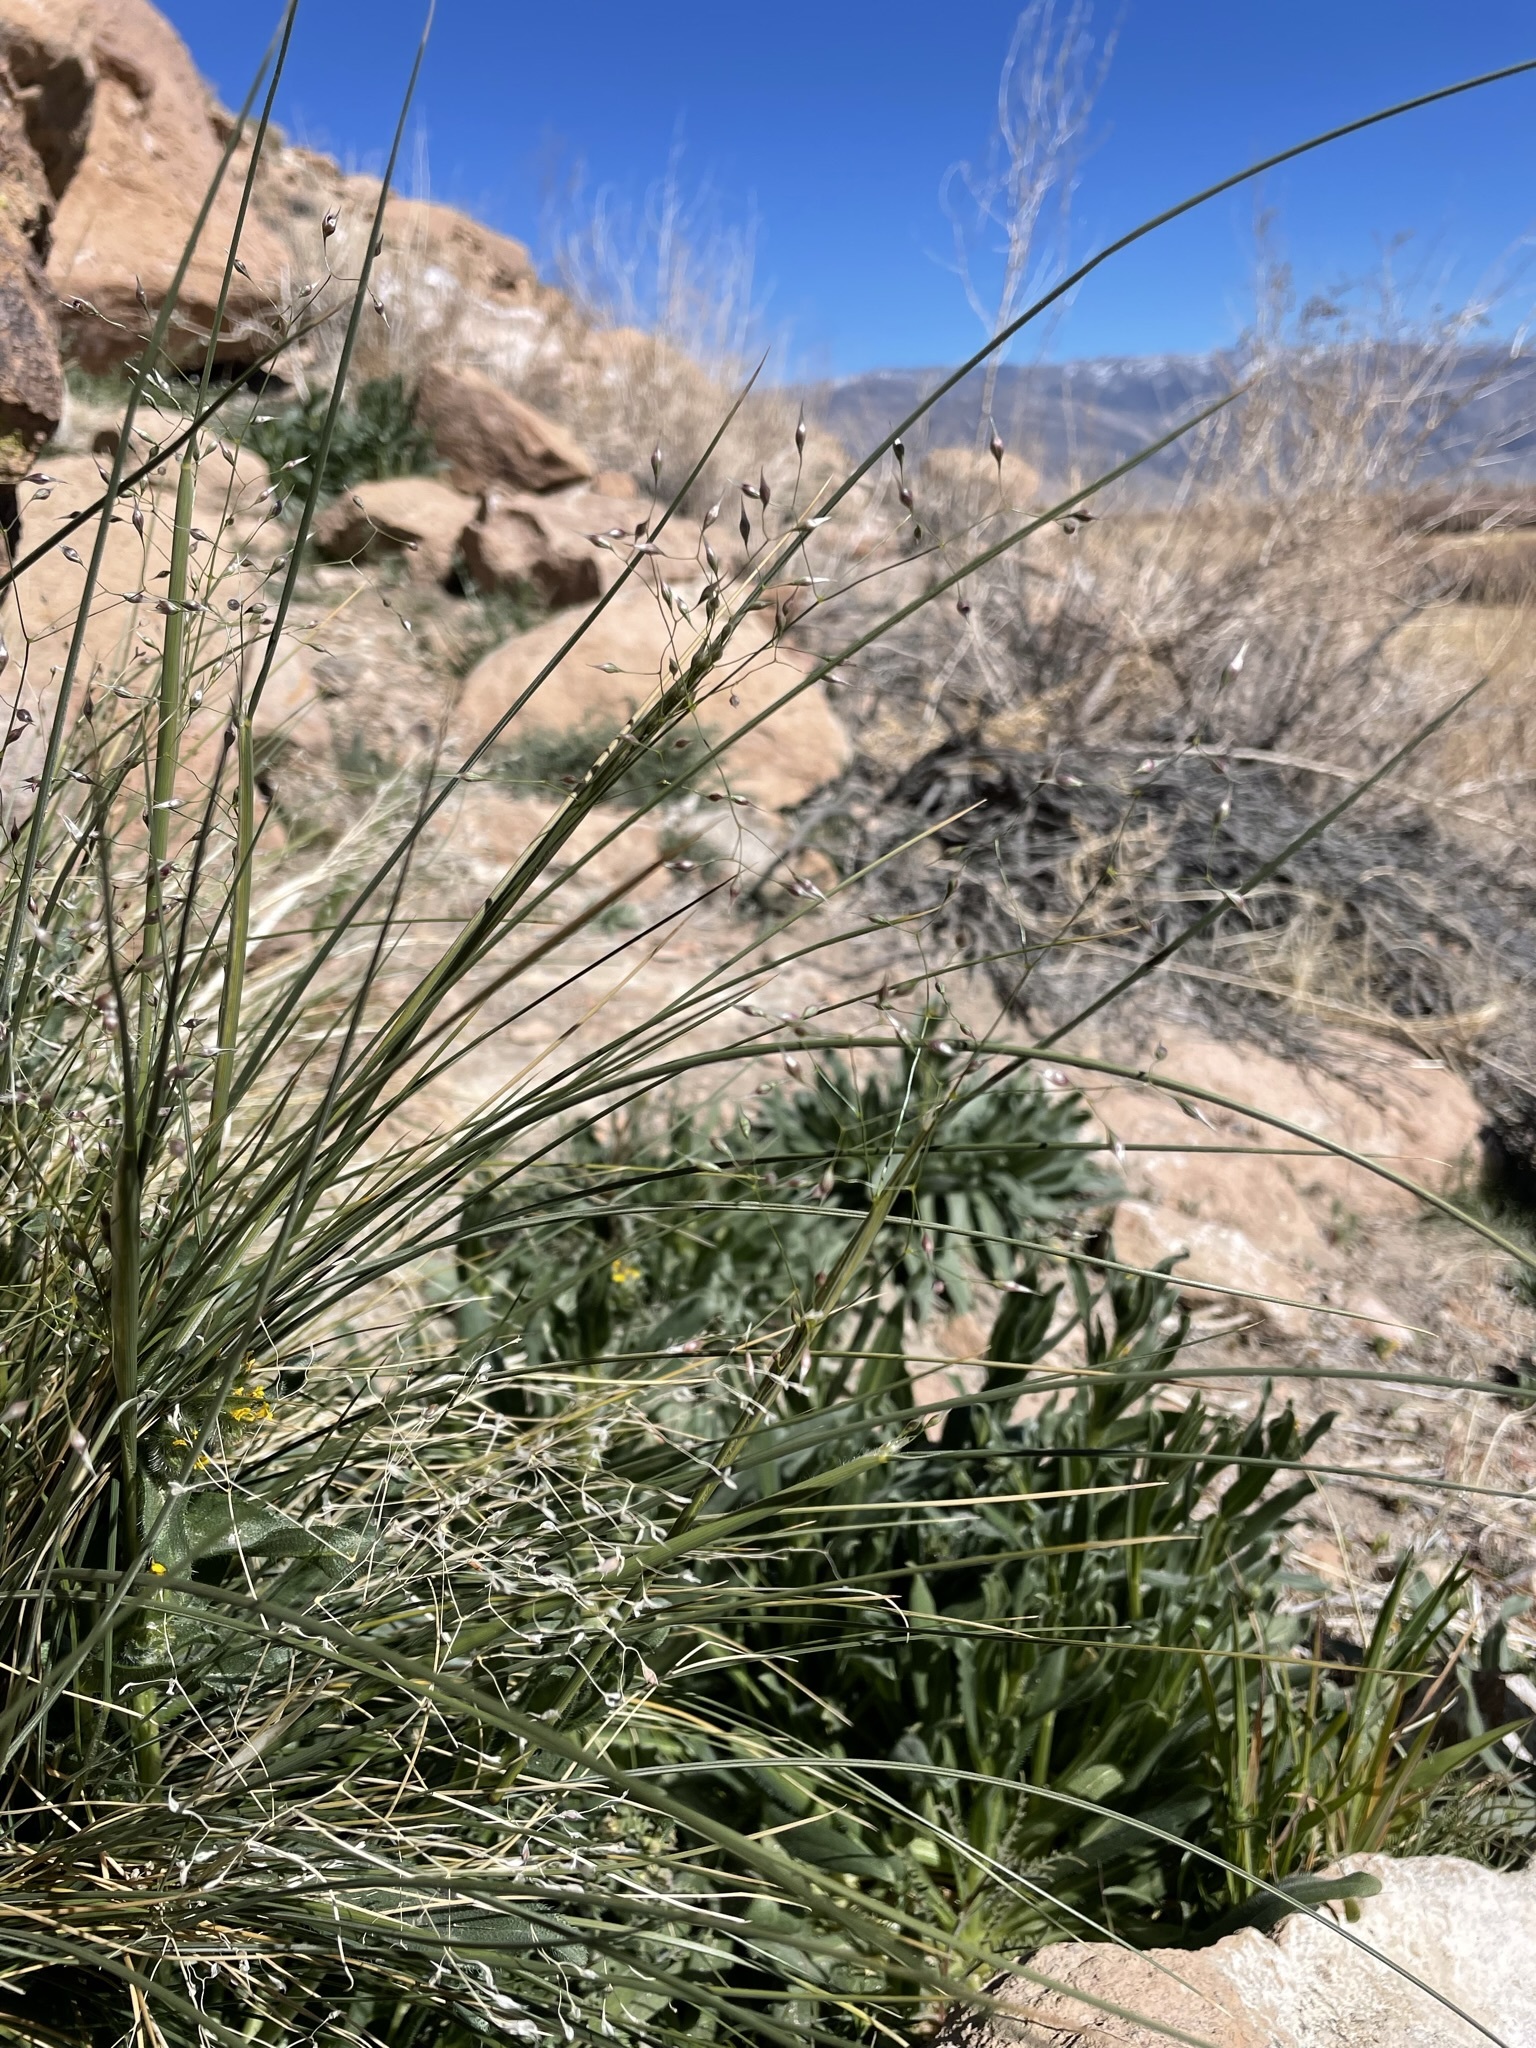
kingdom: Plantae
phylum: Tracheophyta
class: Liliopsida
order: Poales
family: Poaceae
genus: Eriocoma
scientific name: Eriocoma hymenoides
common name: Indian mountain ricegrass
